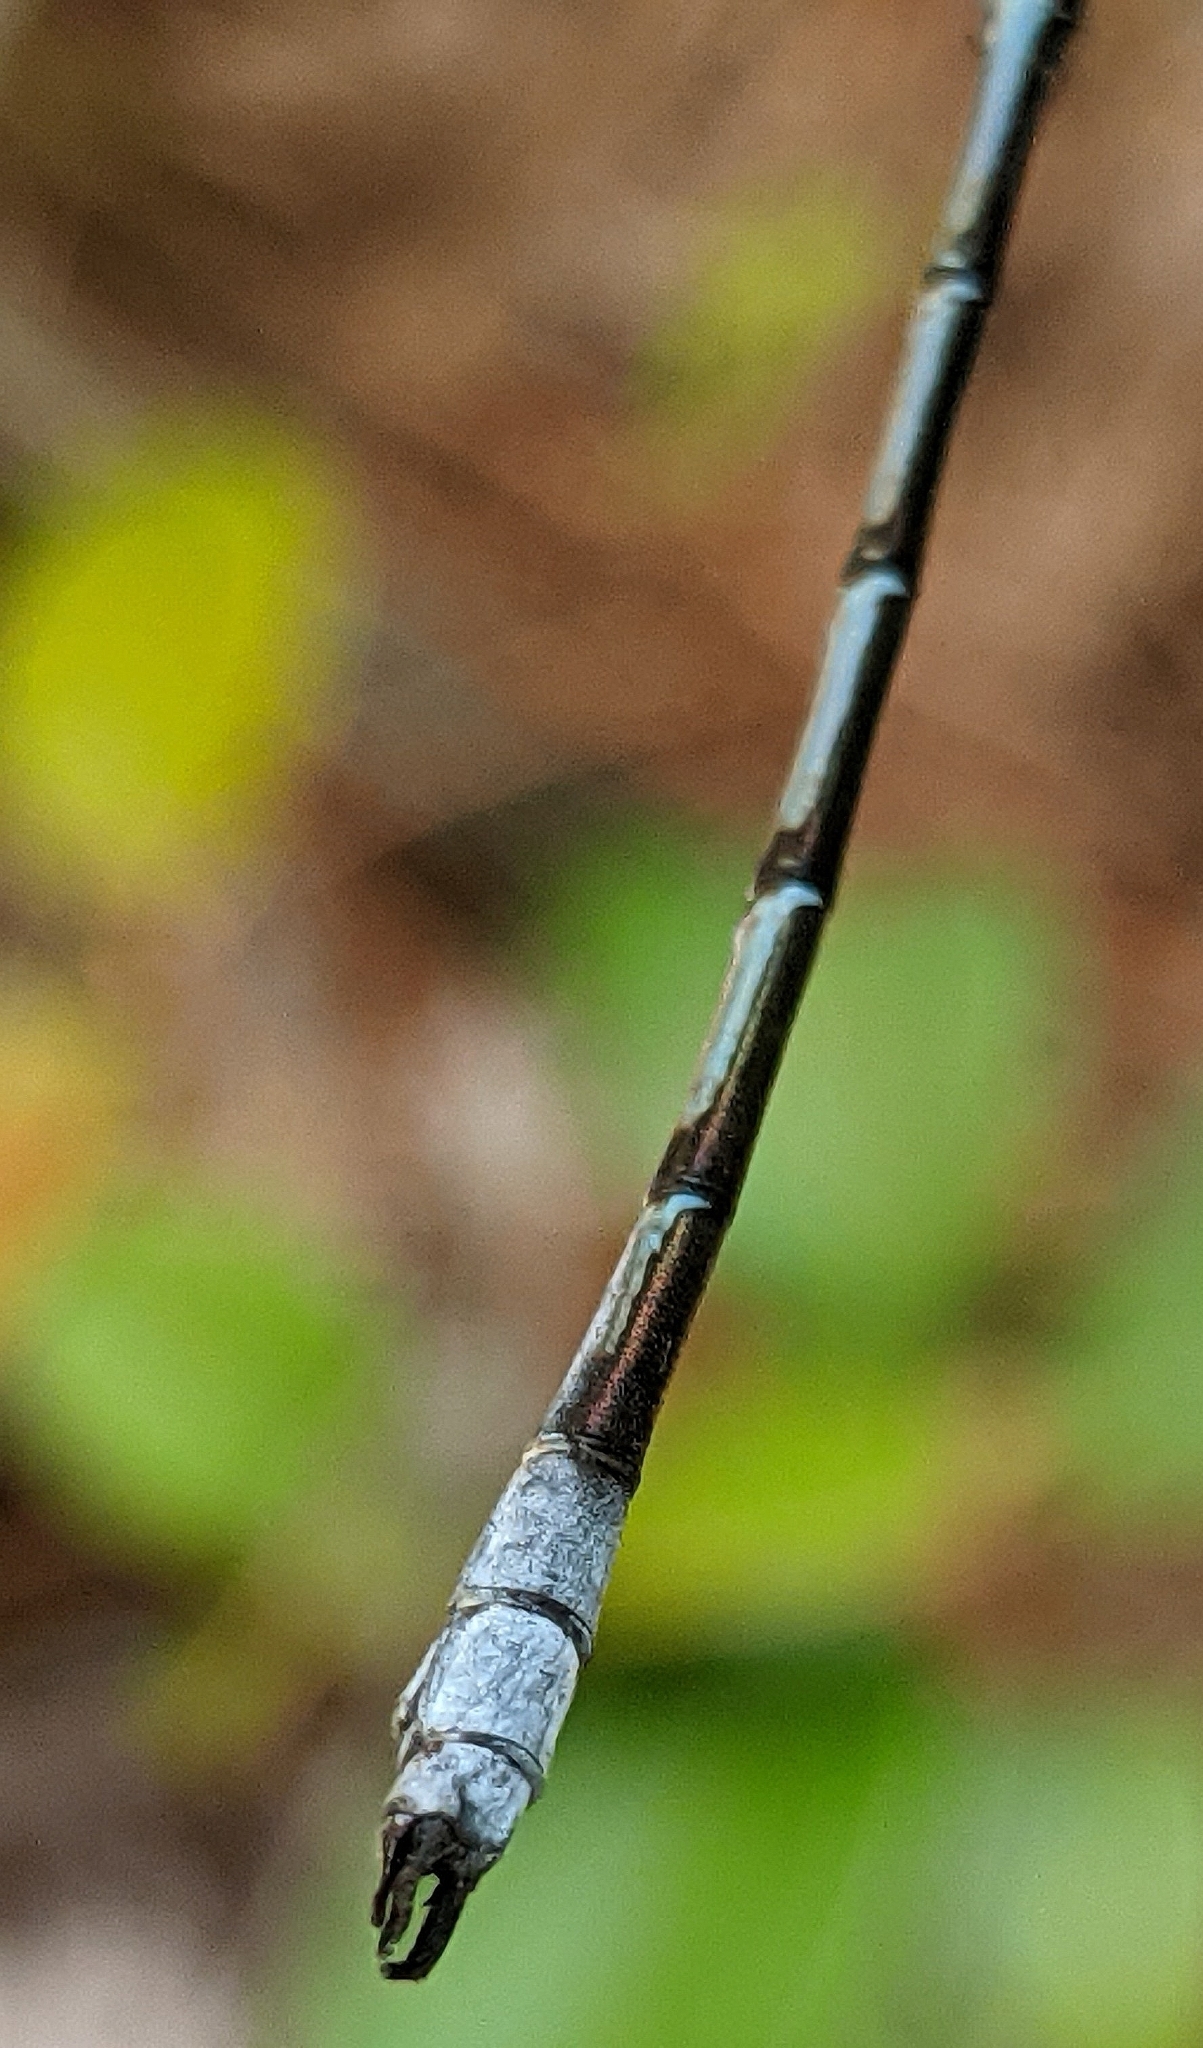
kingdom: Animalia
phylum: Arthropoda
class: Insecta
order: Odonata
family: Lestidae
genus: Lestes
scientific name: Lestes forcipatus
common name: Sweetflag spreadwing
